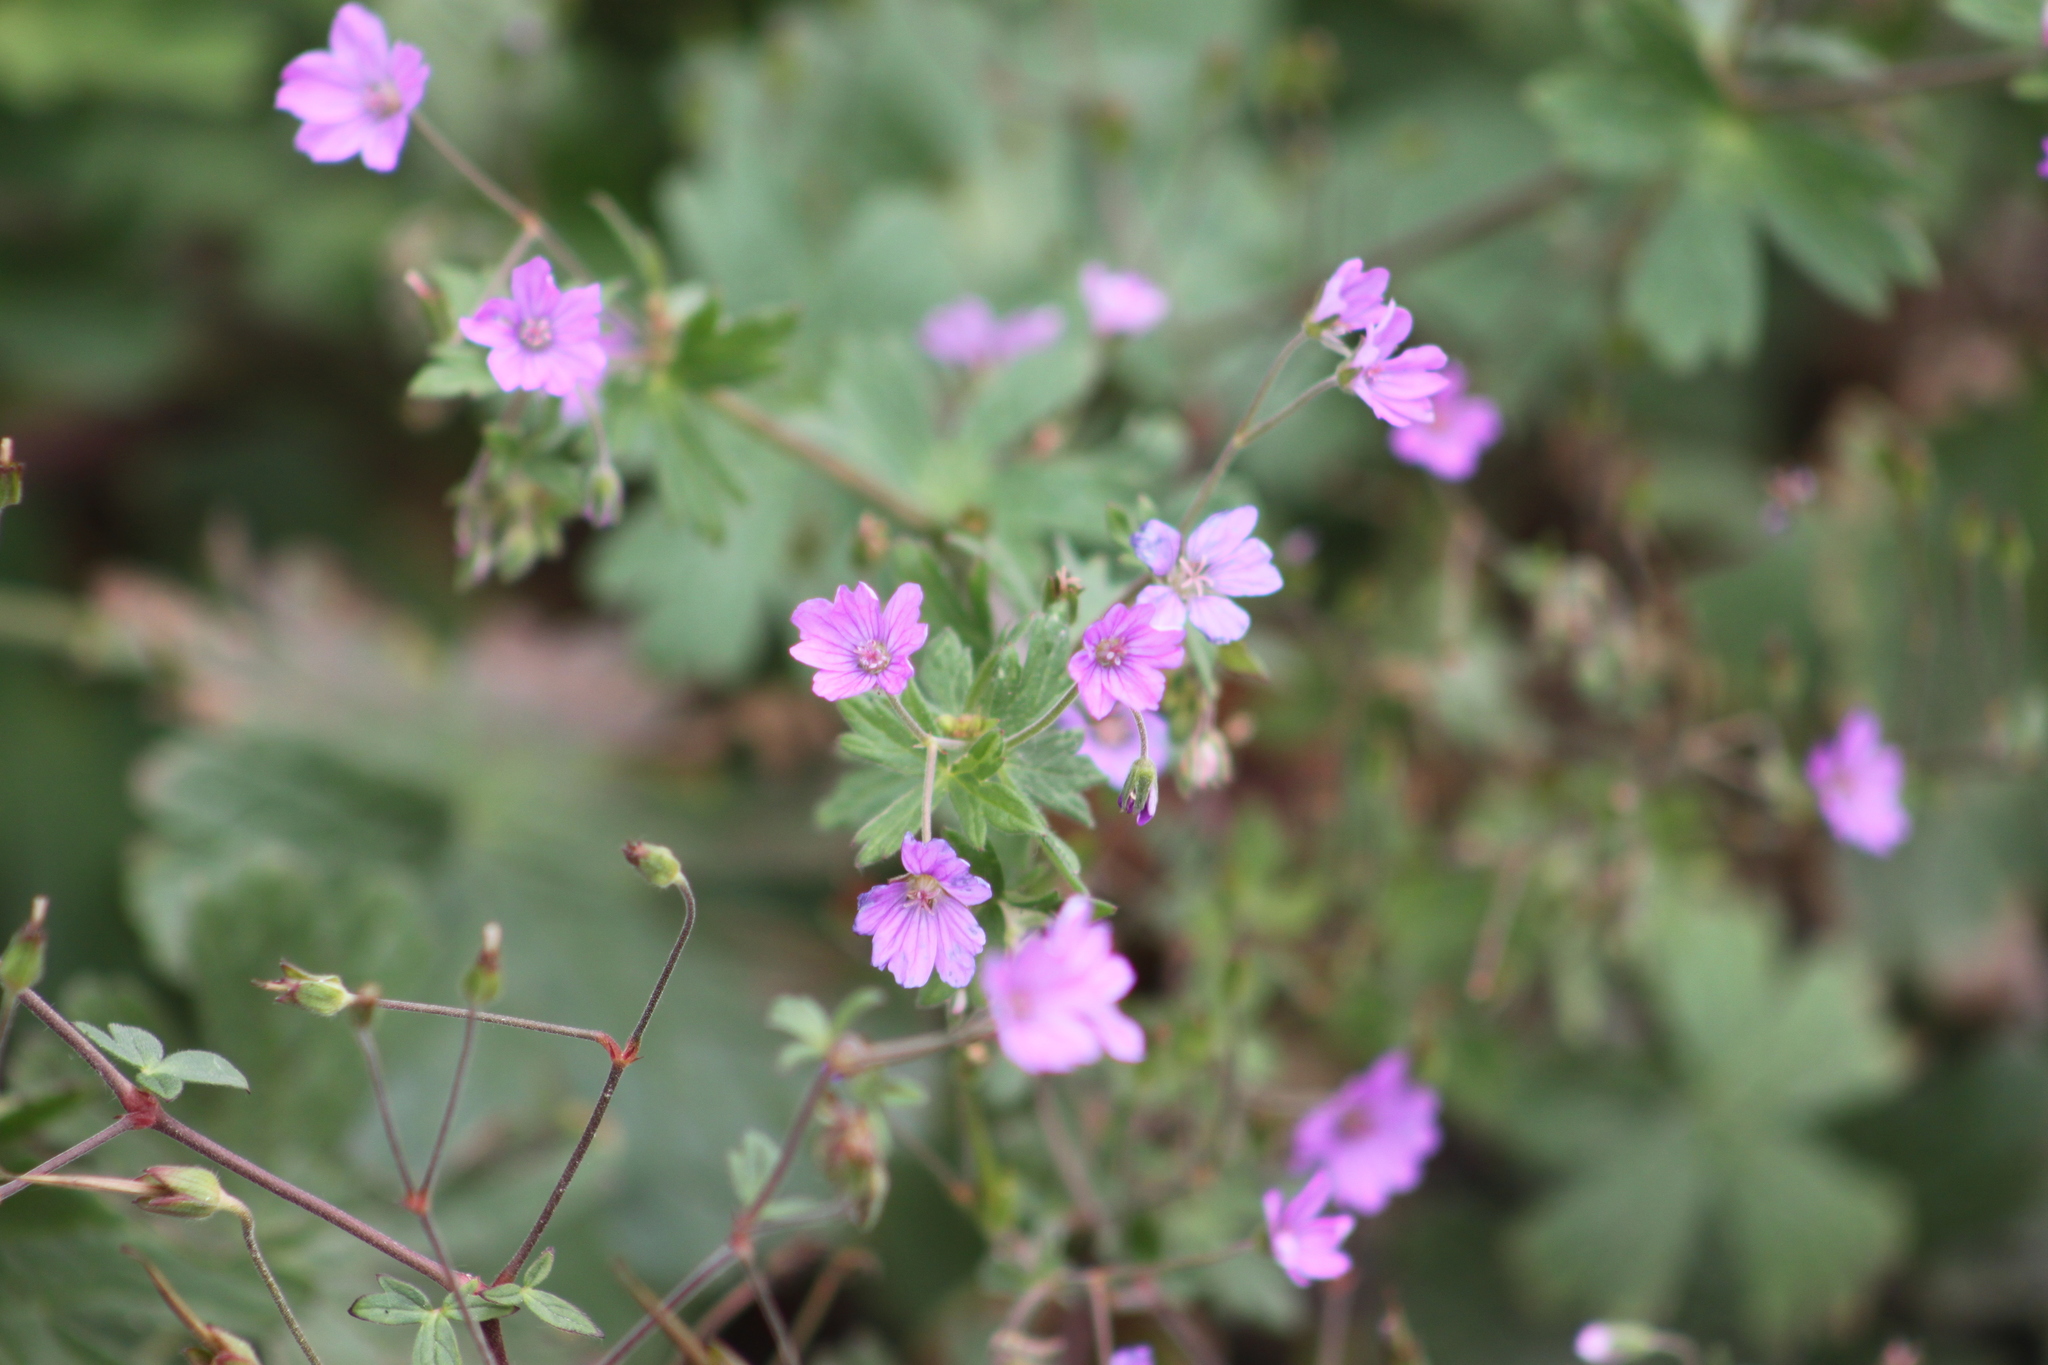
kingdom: Plantae
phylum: Tracheophyta
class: Magnoliopsida
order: Geraniales
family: Geraniaceae
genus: Geranium
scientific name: Geranium pyrenaicum
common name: Hedgerow crane's-bill
